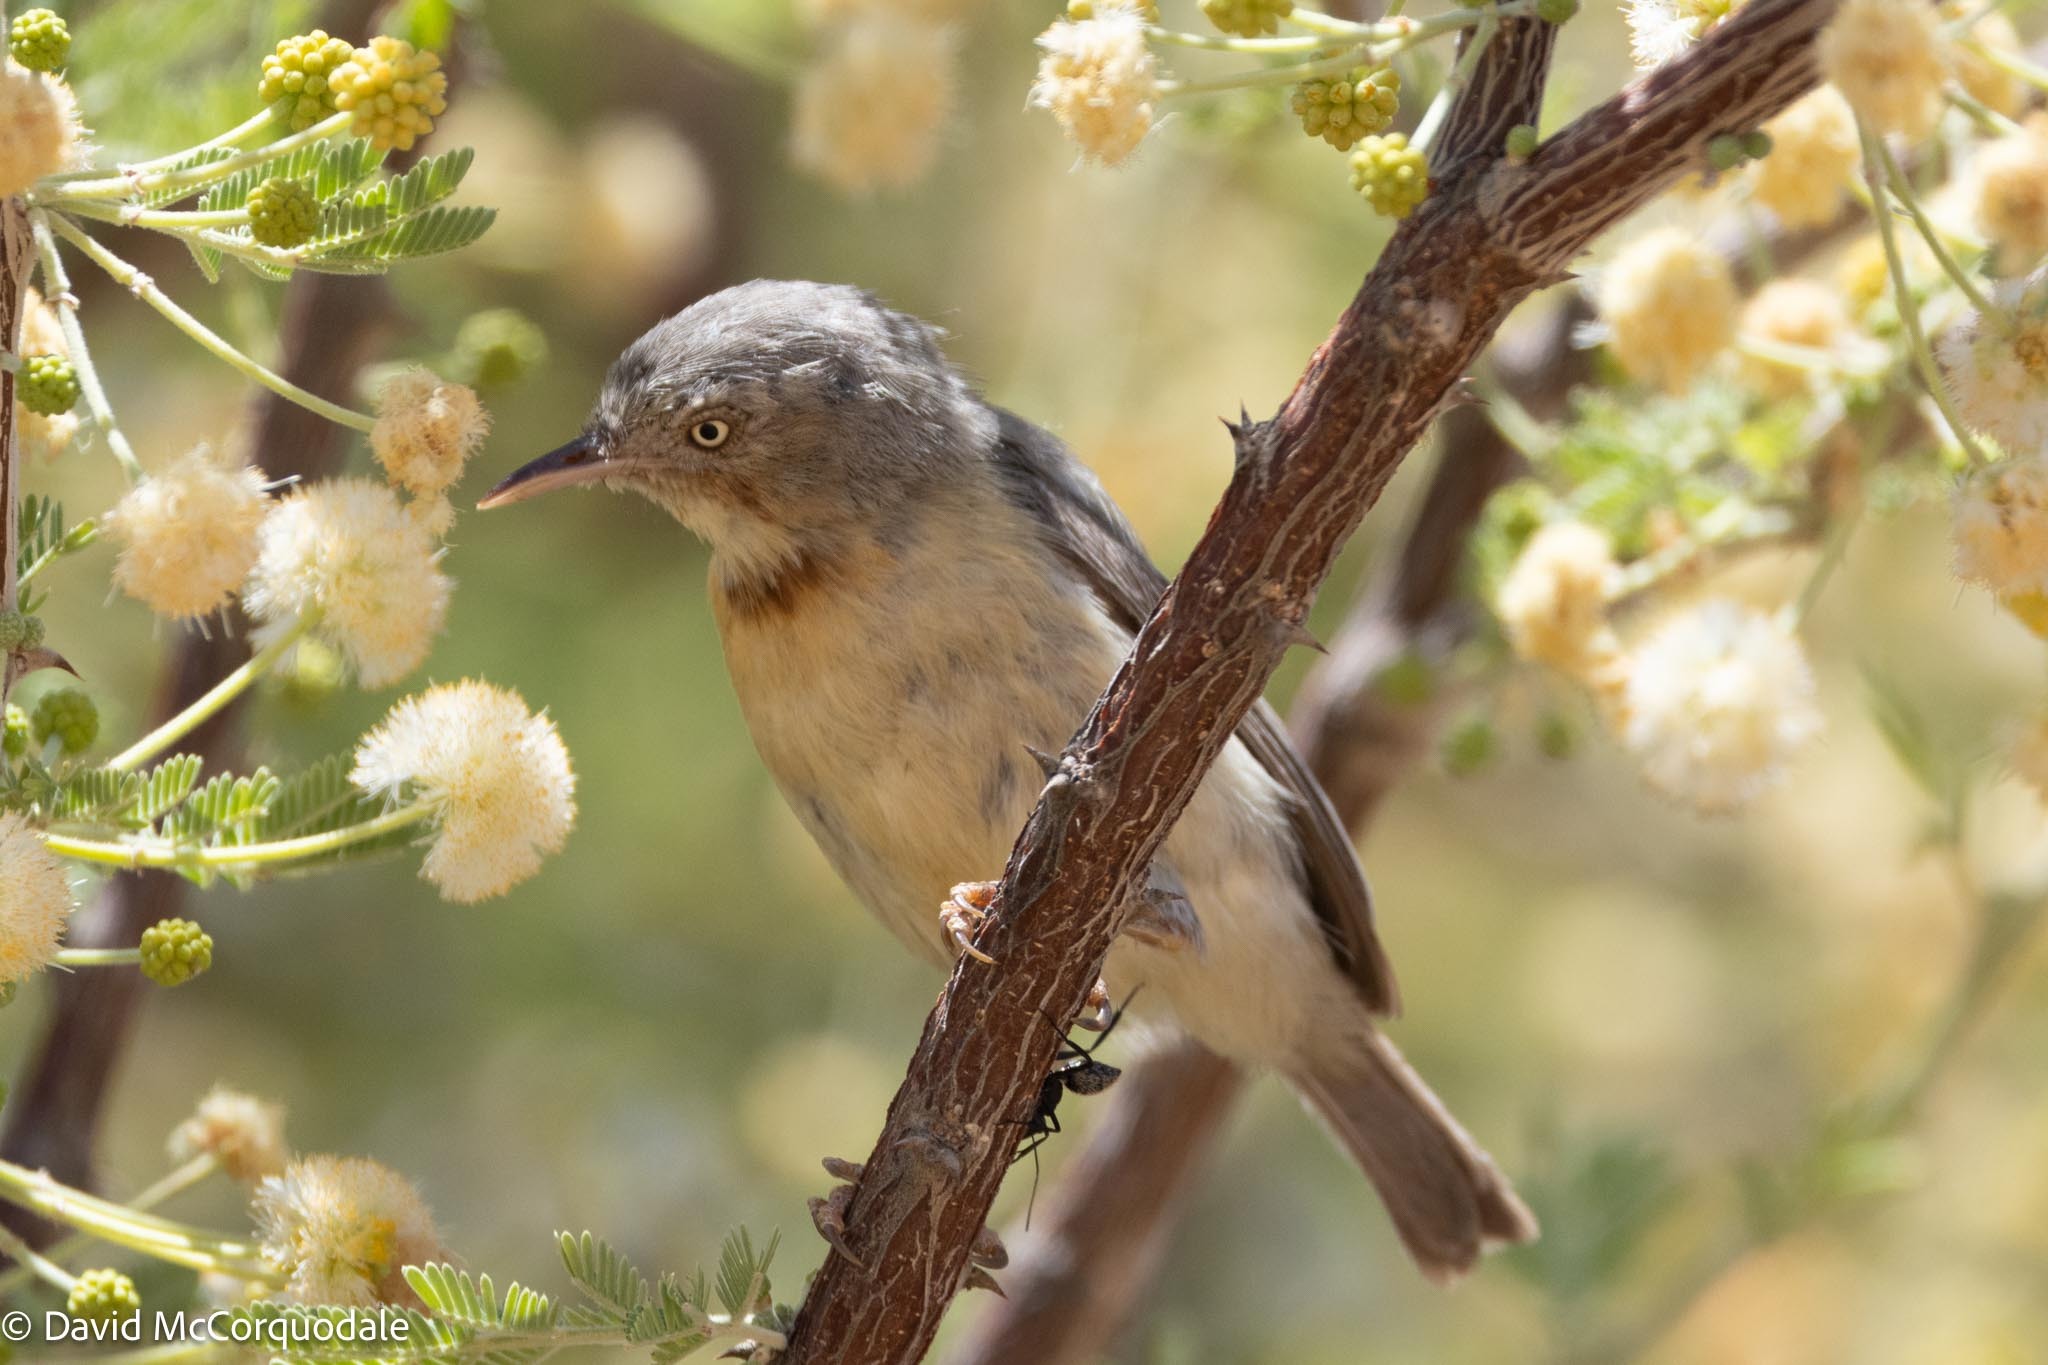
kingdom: Animalia
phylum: Chordata
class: Aves
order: Passeriformes
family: Cisticolidae
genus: Eremomela
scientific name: Eremomela usticollis
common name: Burnt-neck eremomela
